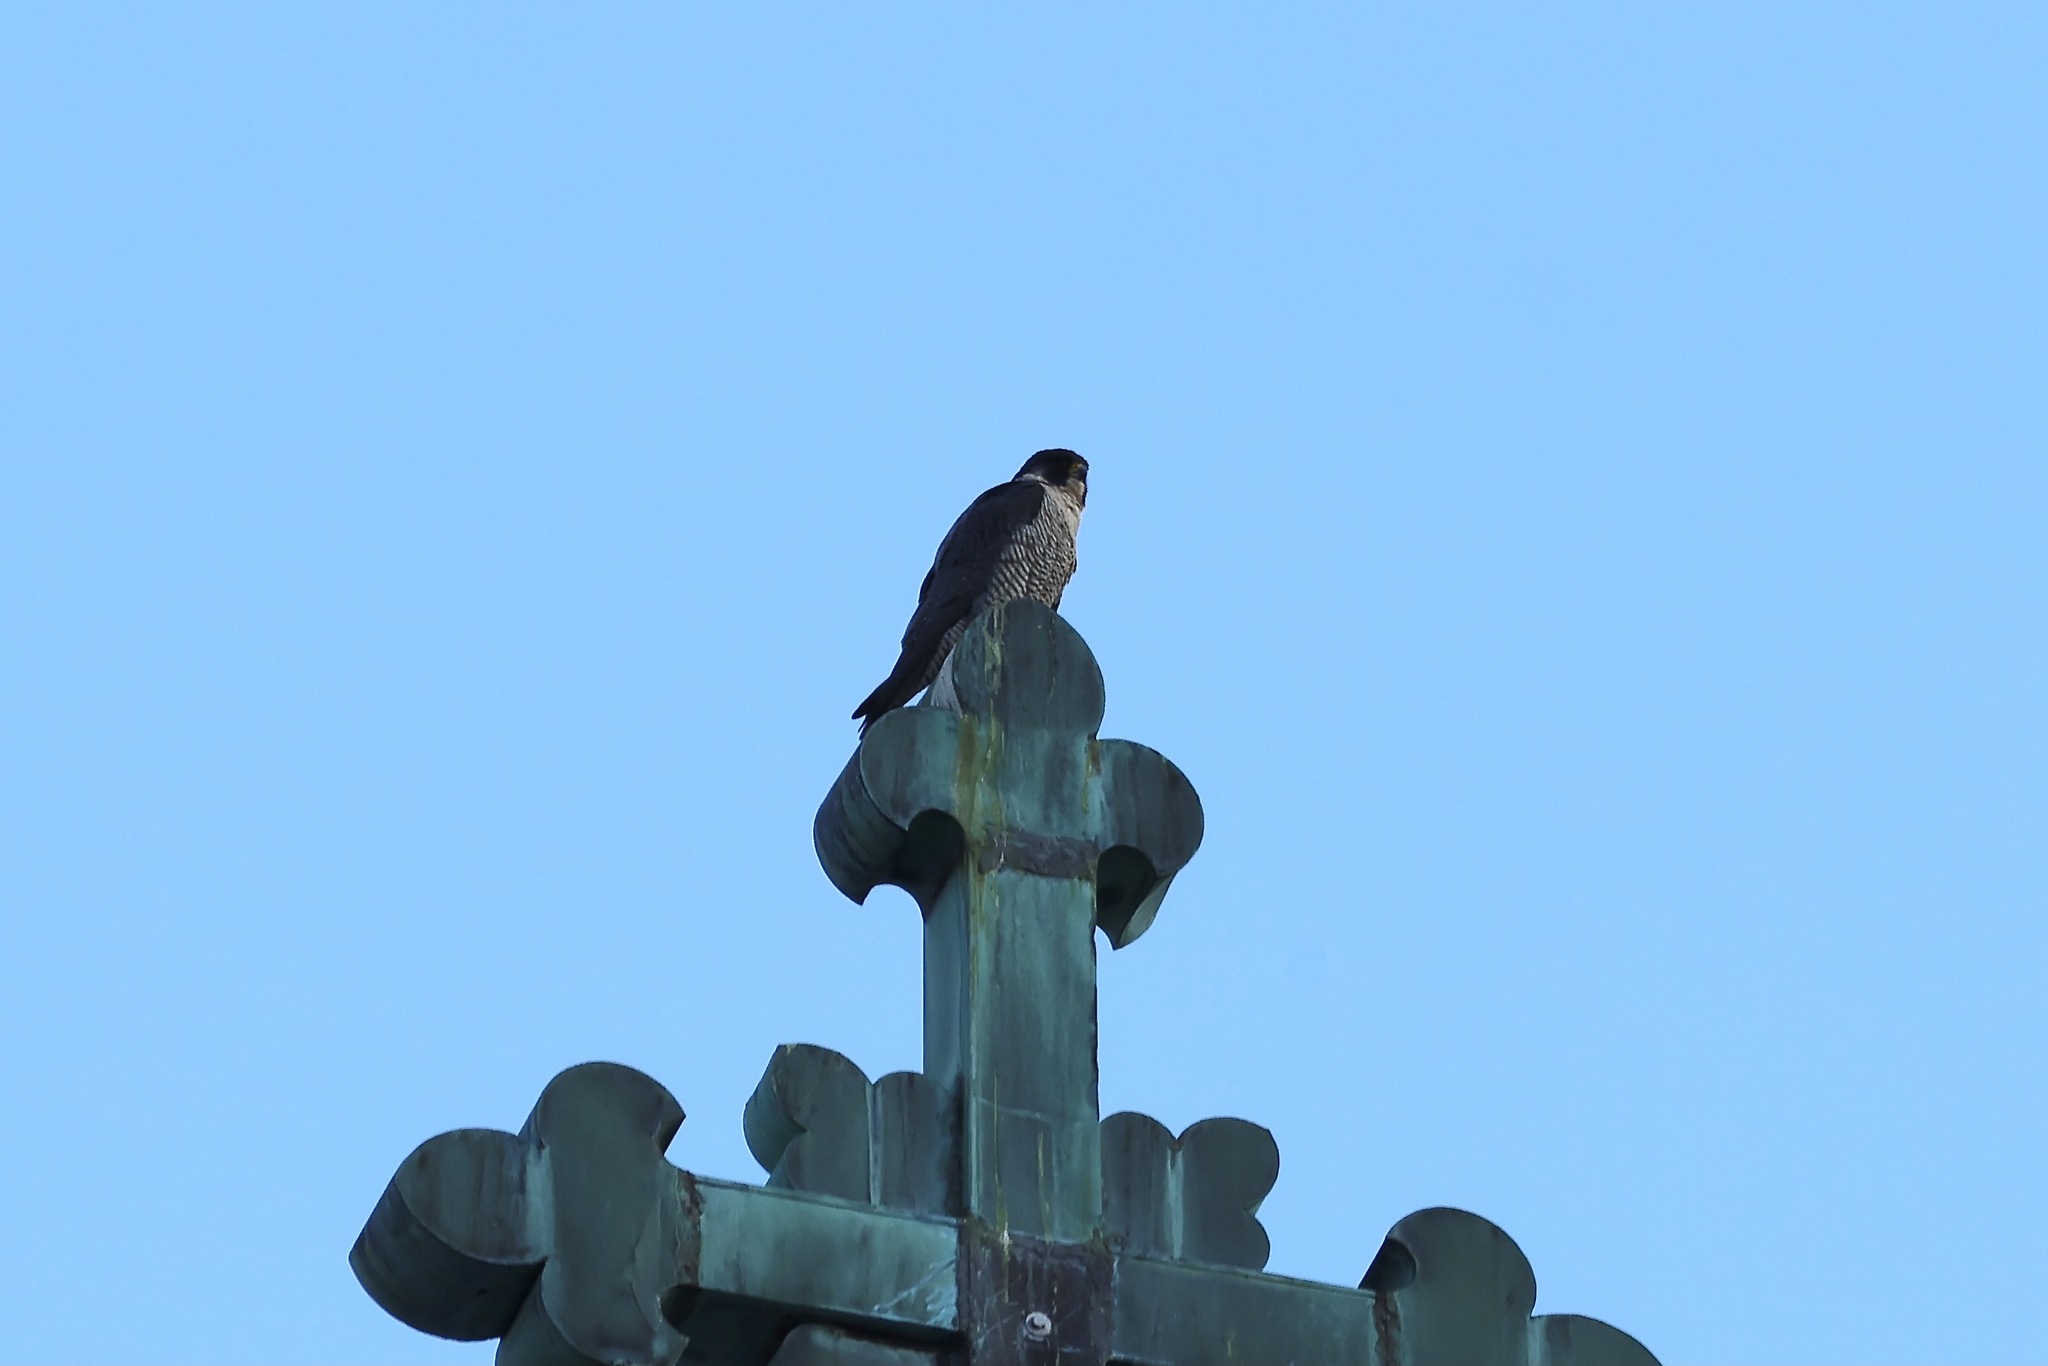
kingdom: Animalia
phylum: Chordata
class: Aves
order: Falconiformes
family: Falconidae
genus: Falco
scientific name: Falco peregrinus
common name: Peregrine falcon
